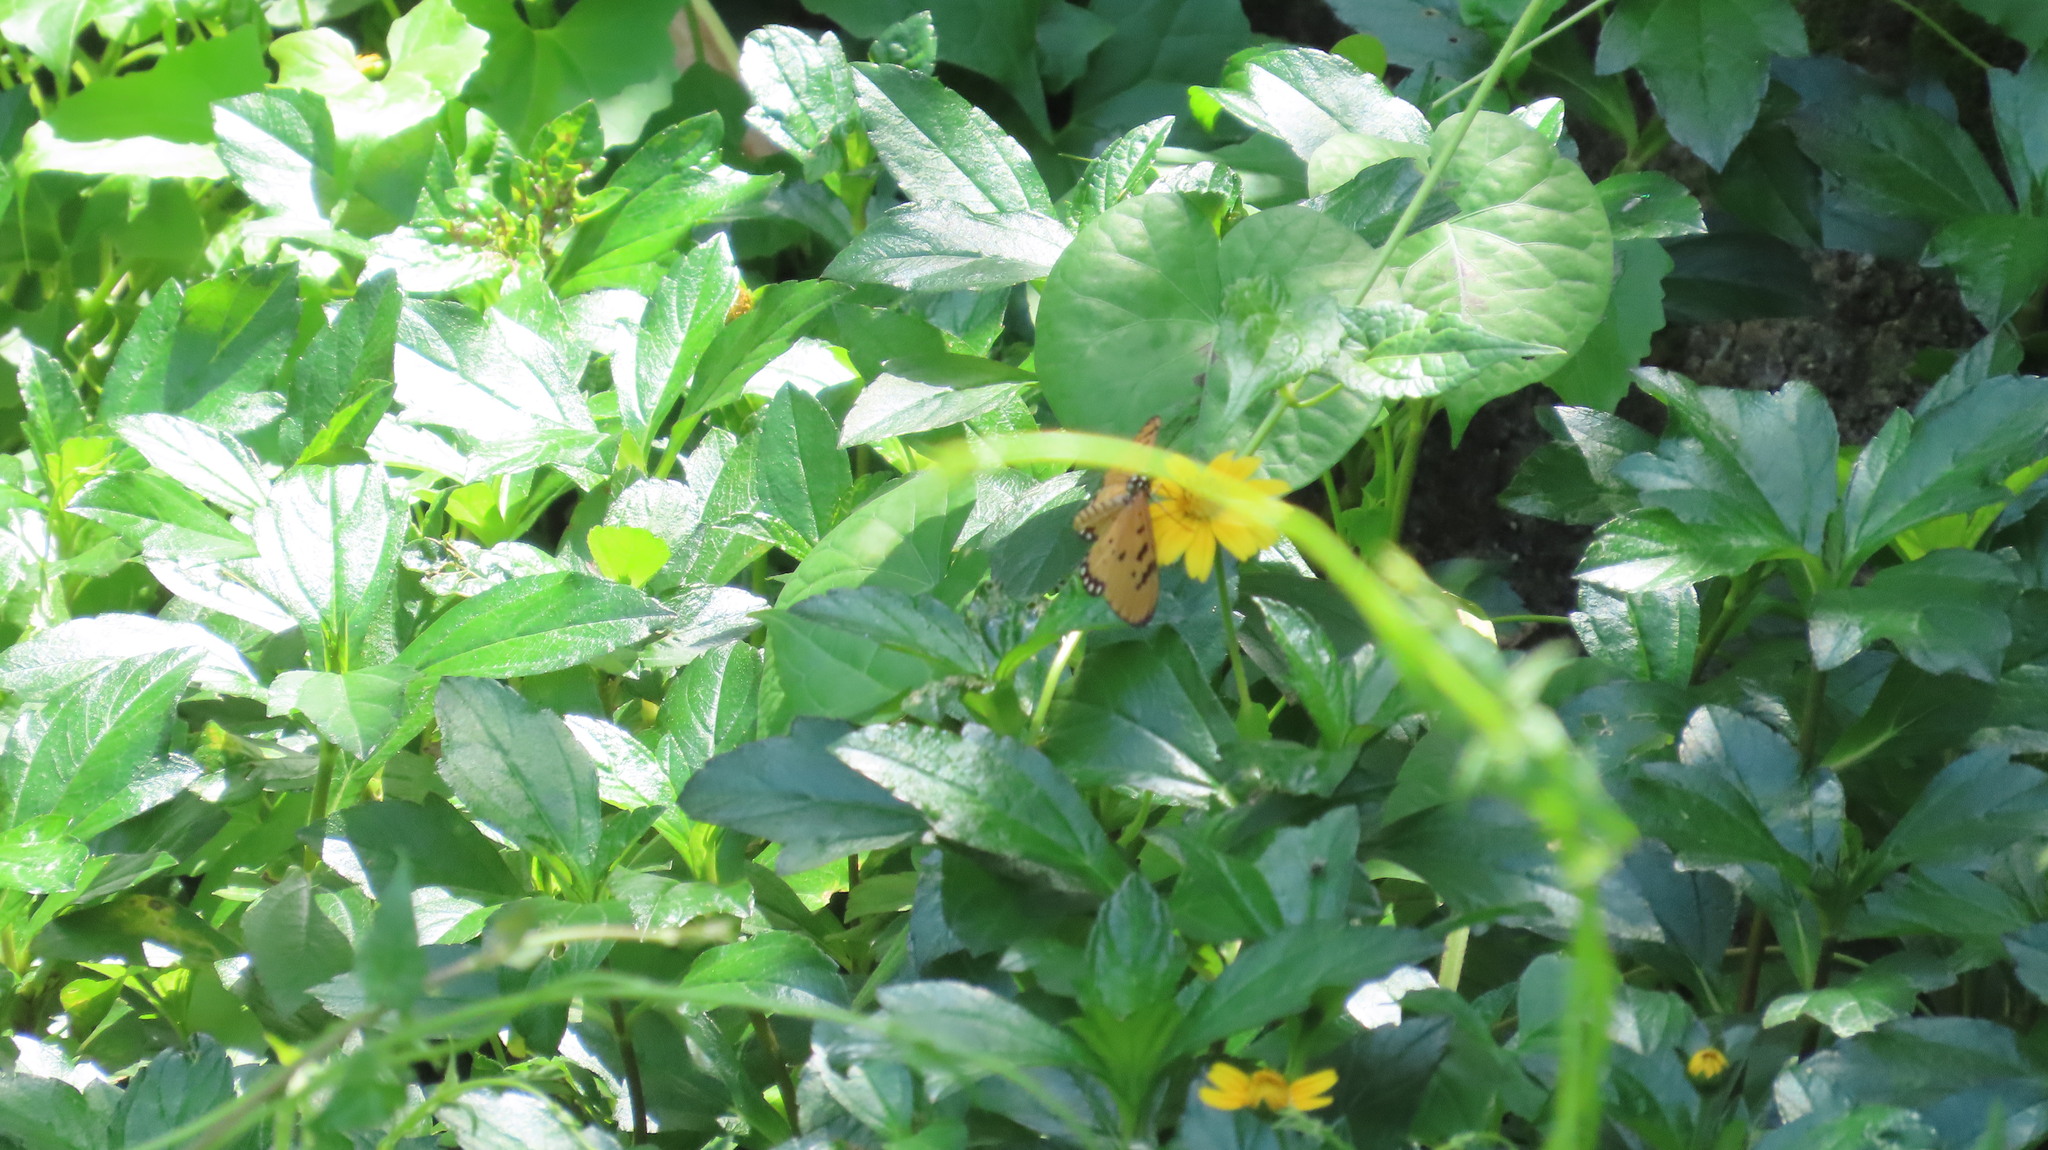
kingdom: Animalia
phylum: Arthropoda
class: Insecta
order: Lepidoptera
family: Nymphalidae
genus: Acraea
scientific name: Acraea terpsicore
